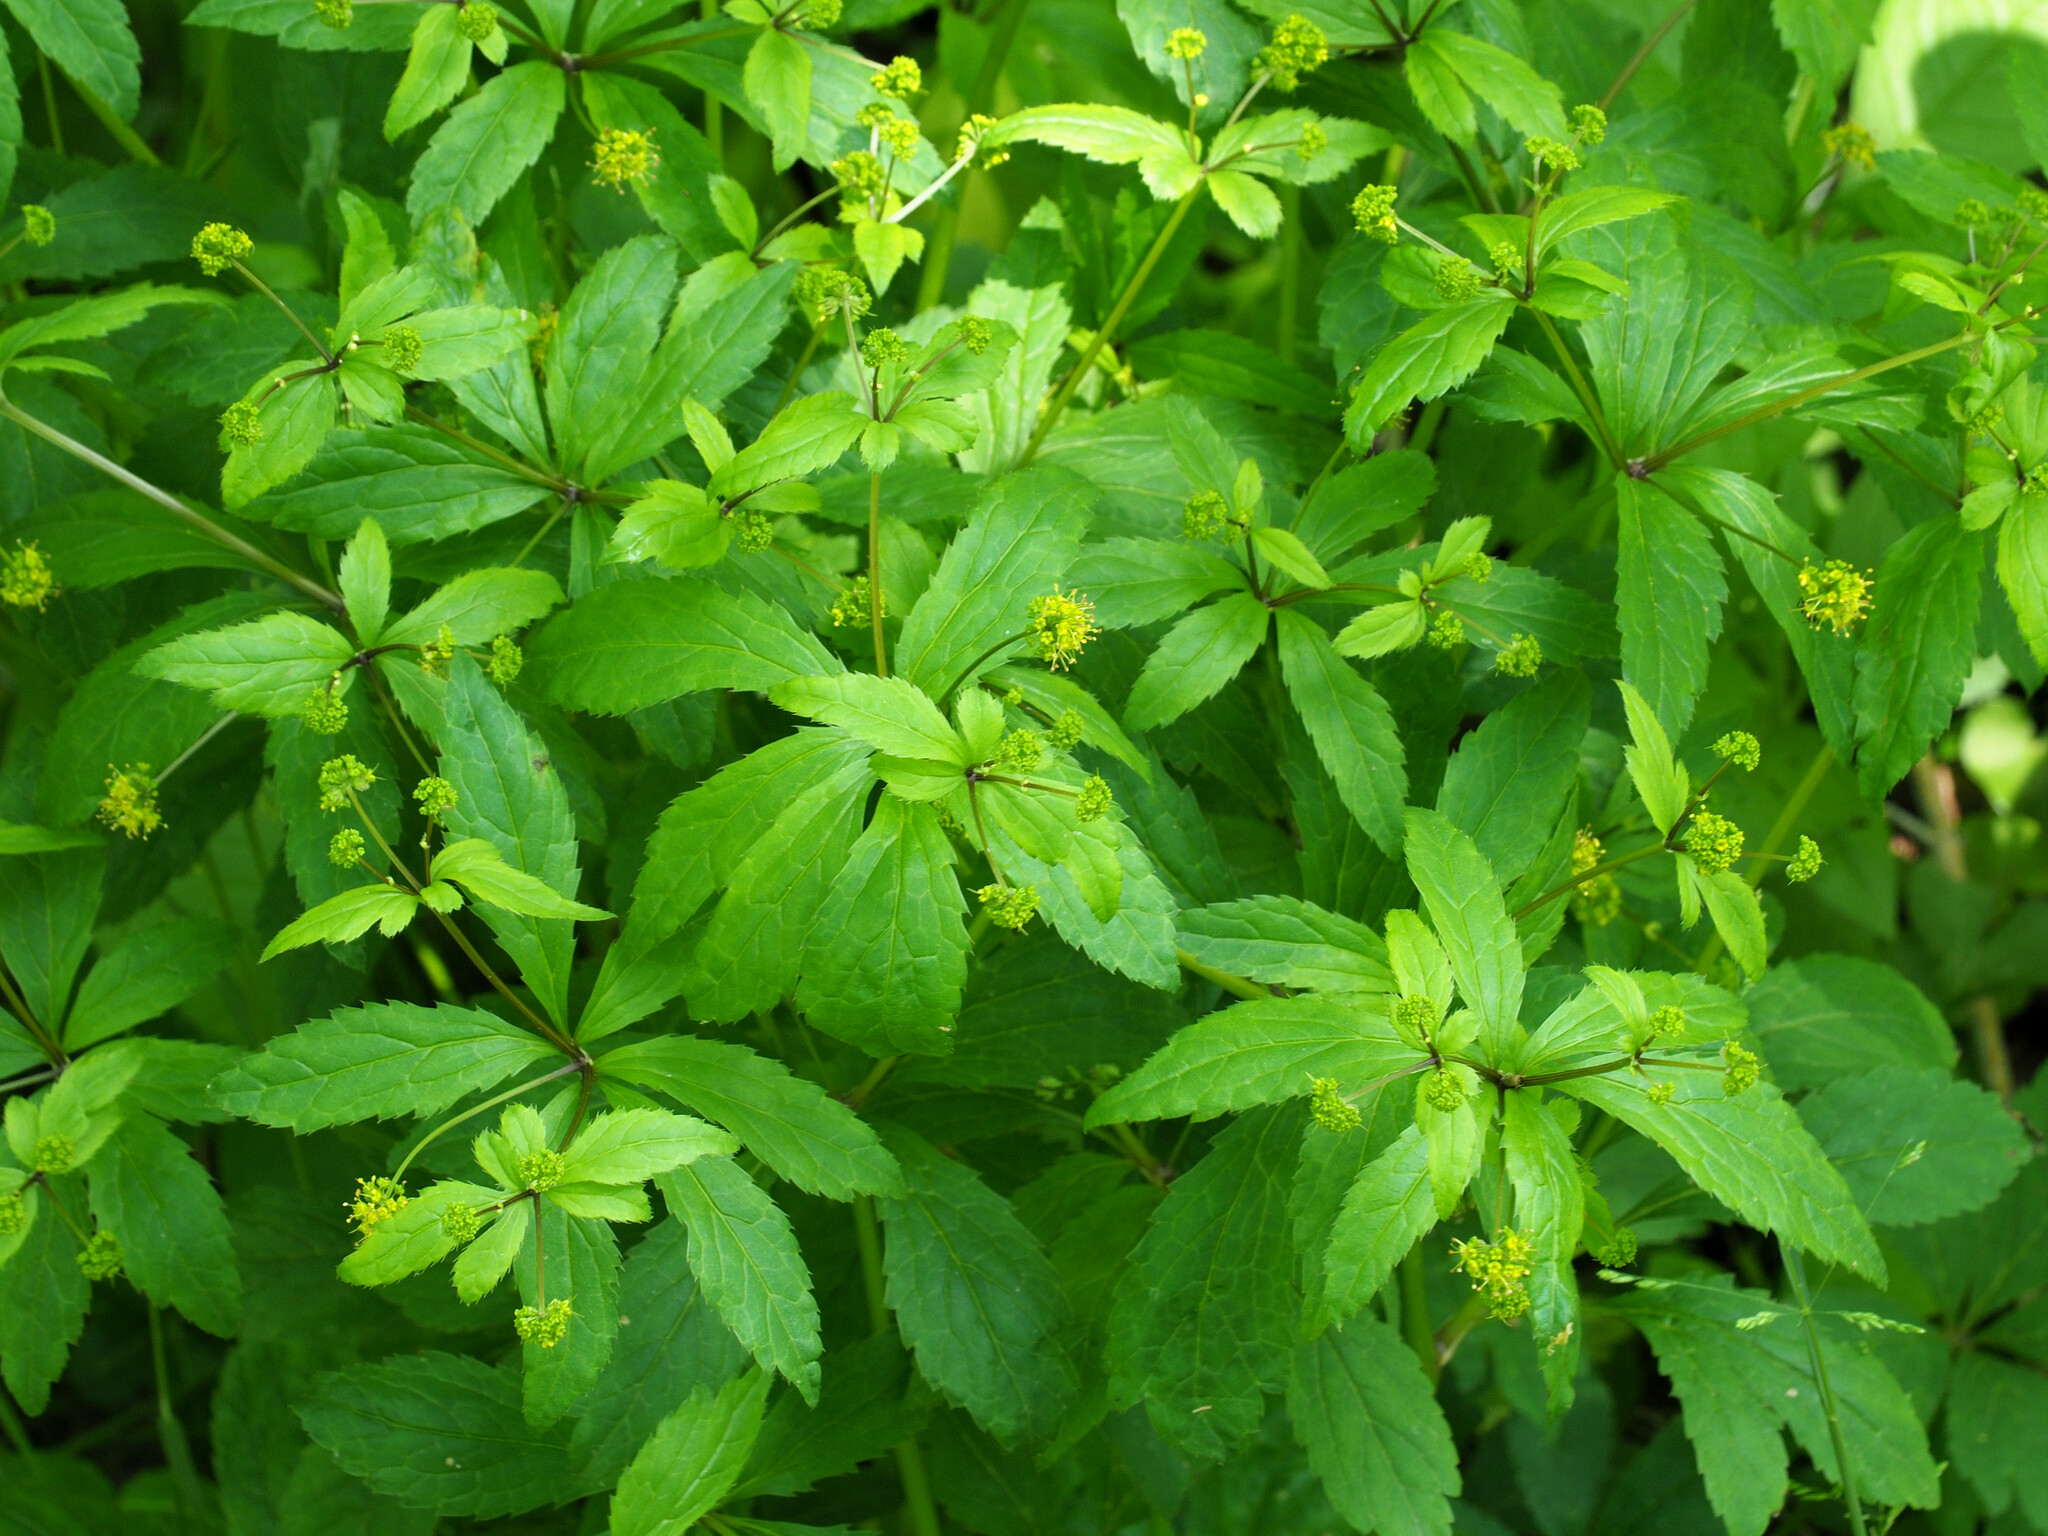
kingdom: Plantae
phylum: Tracheophyta
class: Magnoliopsida
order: Apiales
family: Apiaceae
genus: Sanicula
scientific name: Sanicula odorata
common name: Cluster sanicle
